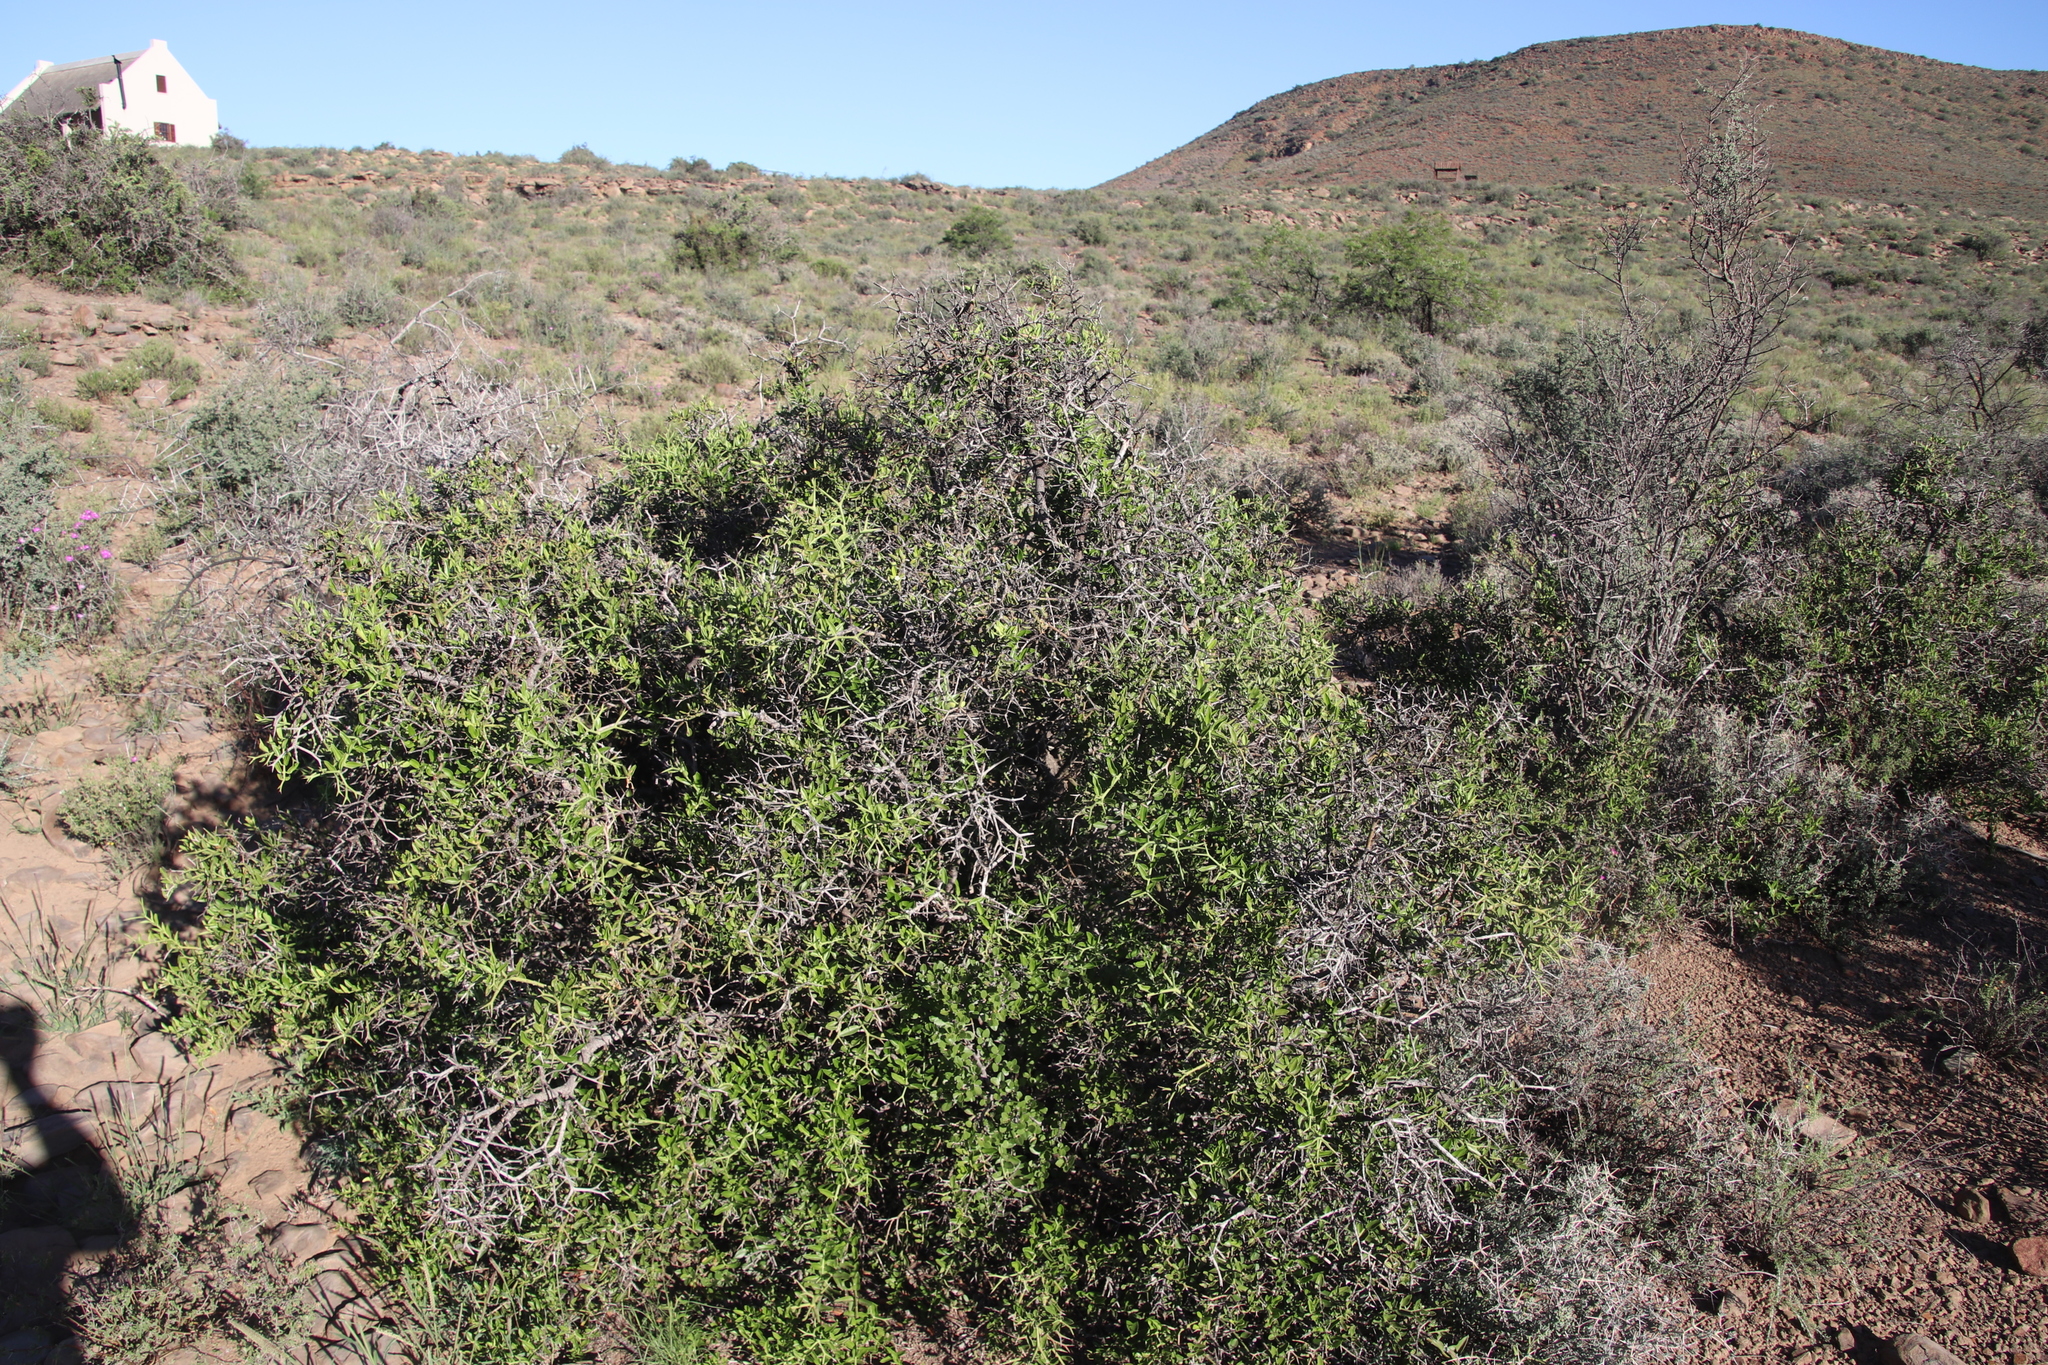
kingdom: Plantae
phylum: Tracheophyta
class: Magnoliopsida
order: Gentianales
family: Apocynaceae
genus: Carissa
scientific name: Carissa haematocarpa
